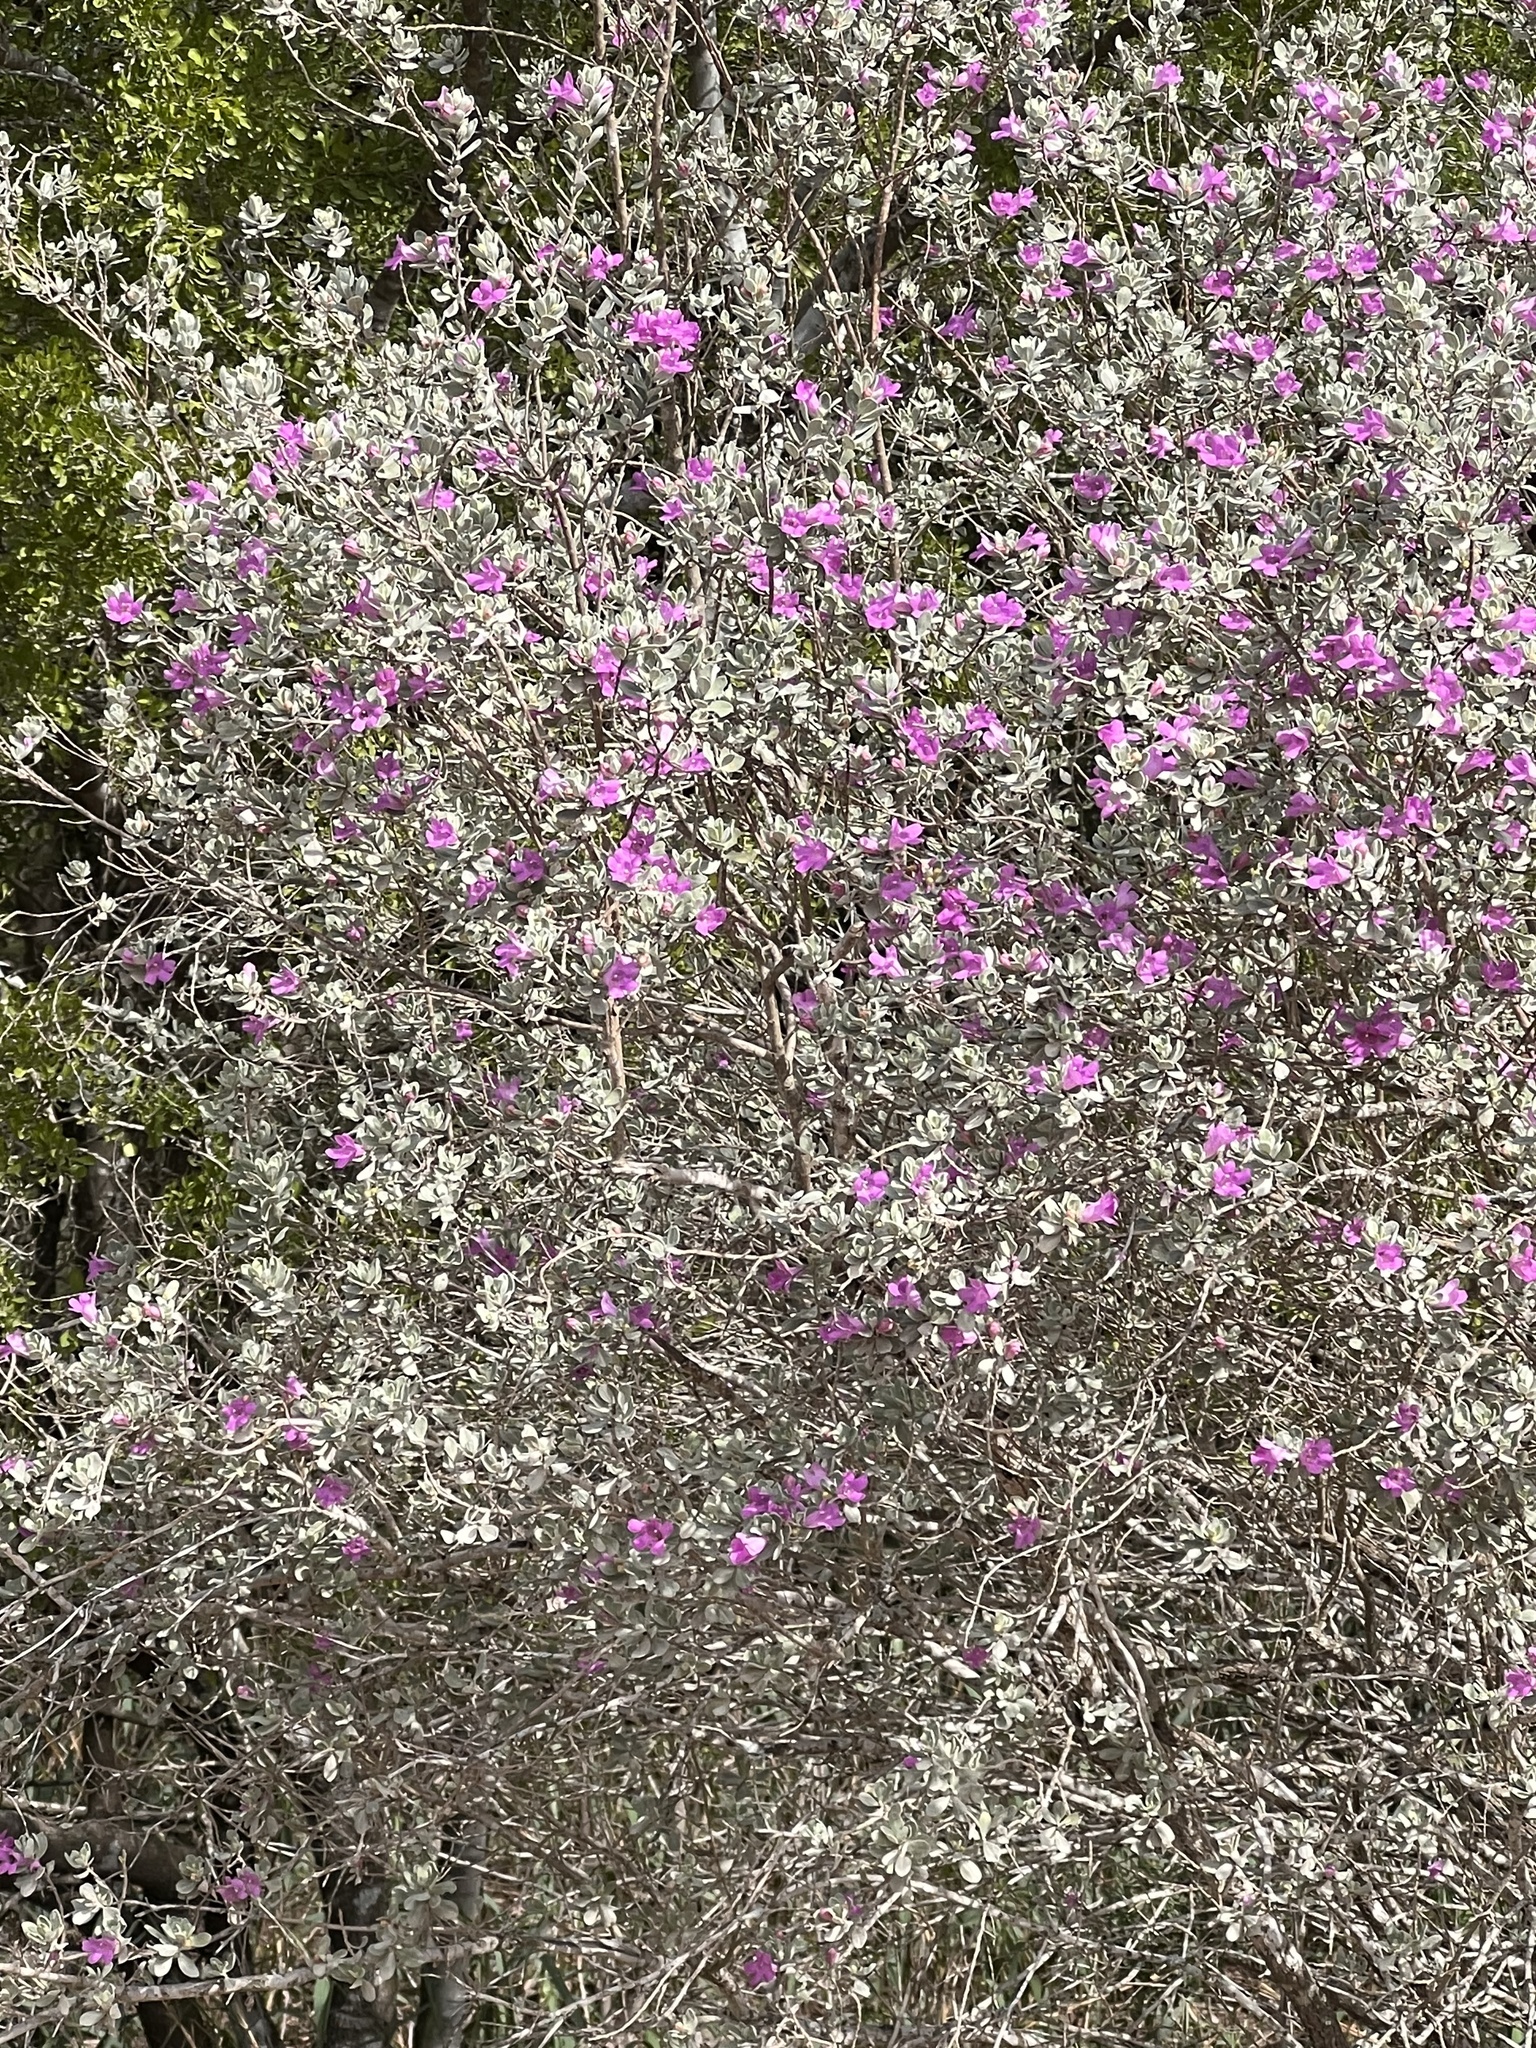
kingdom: Plantae
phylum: Tracheophyta
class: Magnoliopsida
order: Lamiales
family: Scrophulariaceae
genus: Leucophyllum
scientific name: Leucophyllum frutescens
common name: Texas silverleaf
